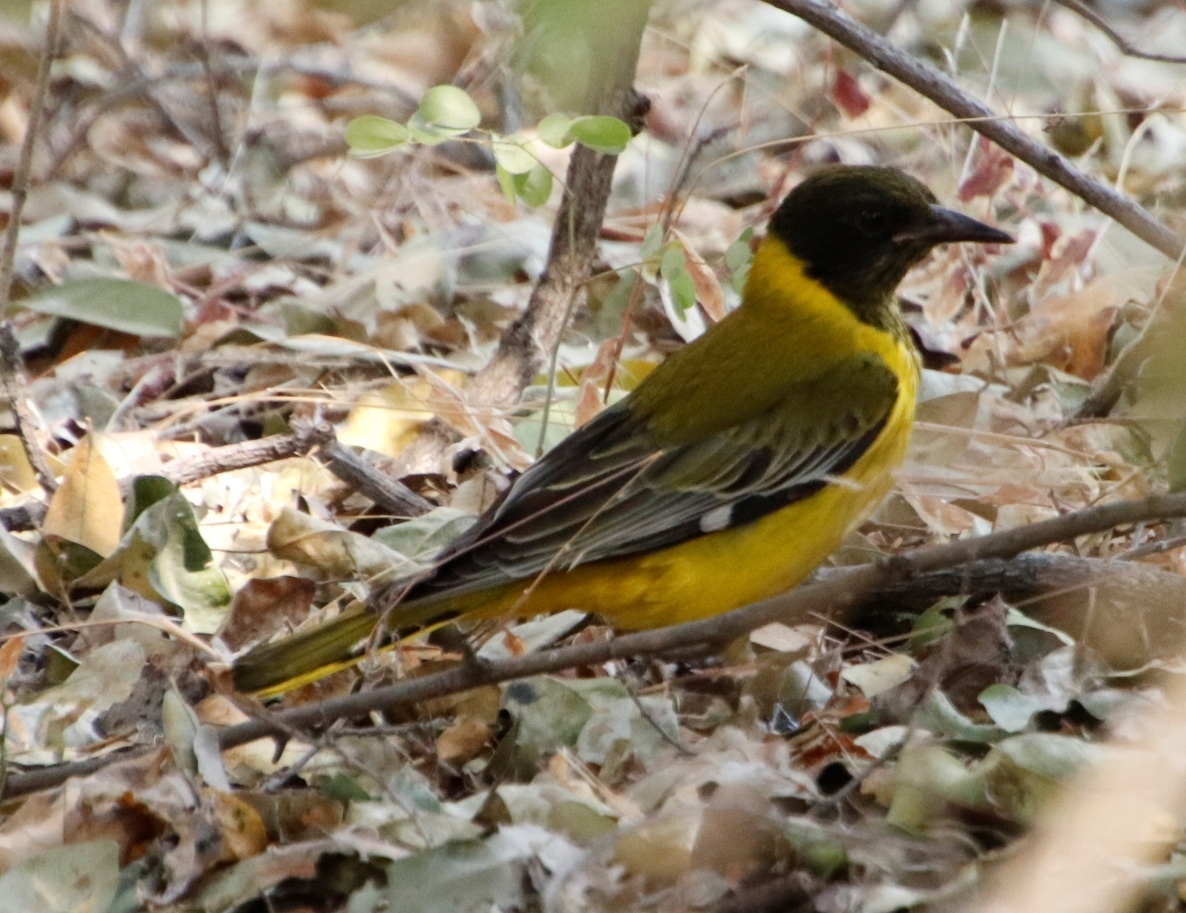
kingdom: Animalia
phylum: Chordata
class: Aves
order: Passeriformes
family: Oriolidae
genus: Oriolus
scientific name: Oriolus larvatus
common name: Black-headed oriole
